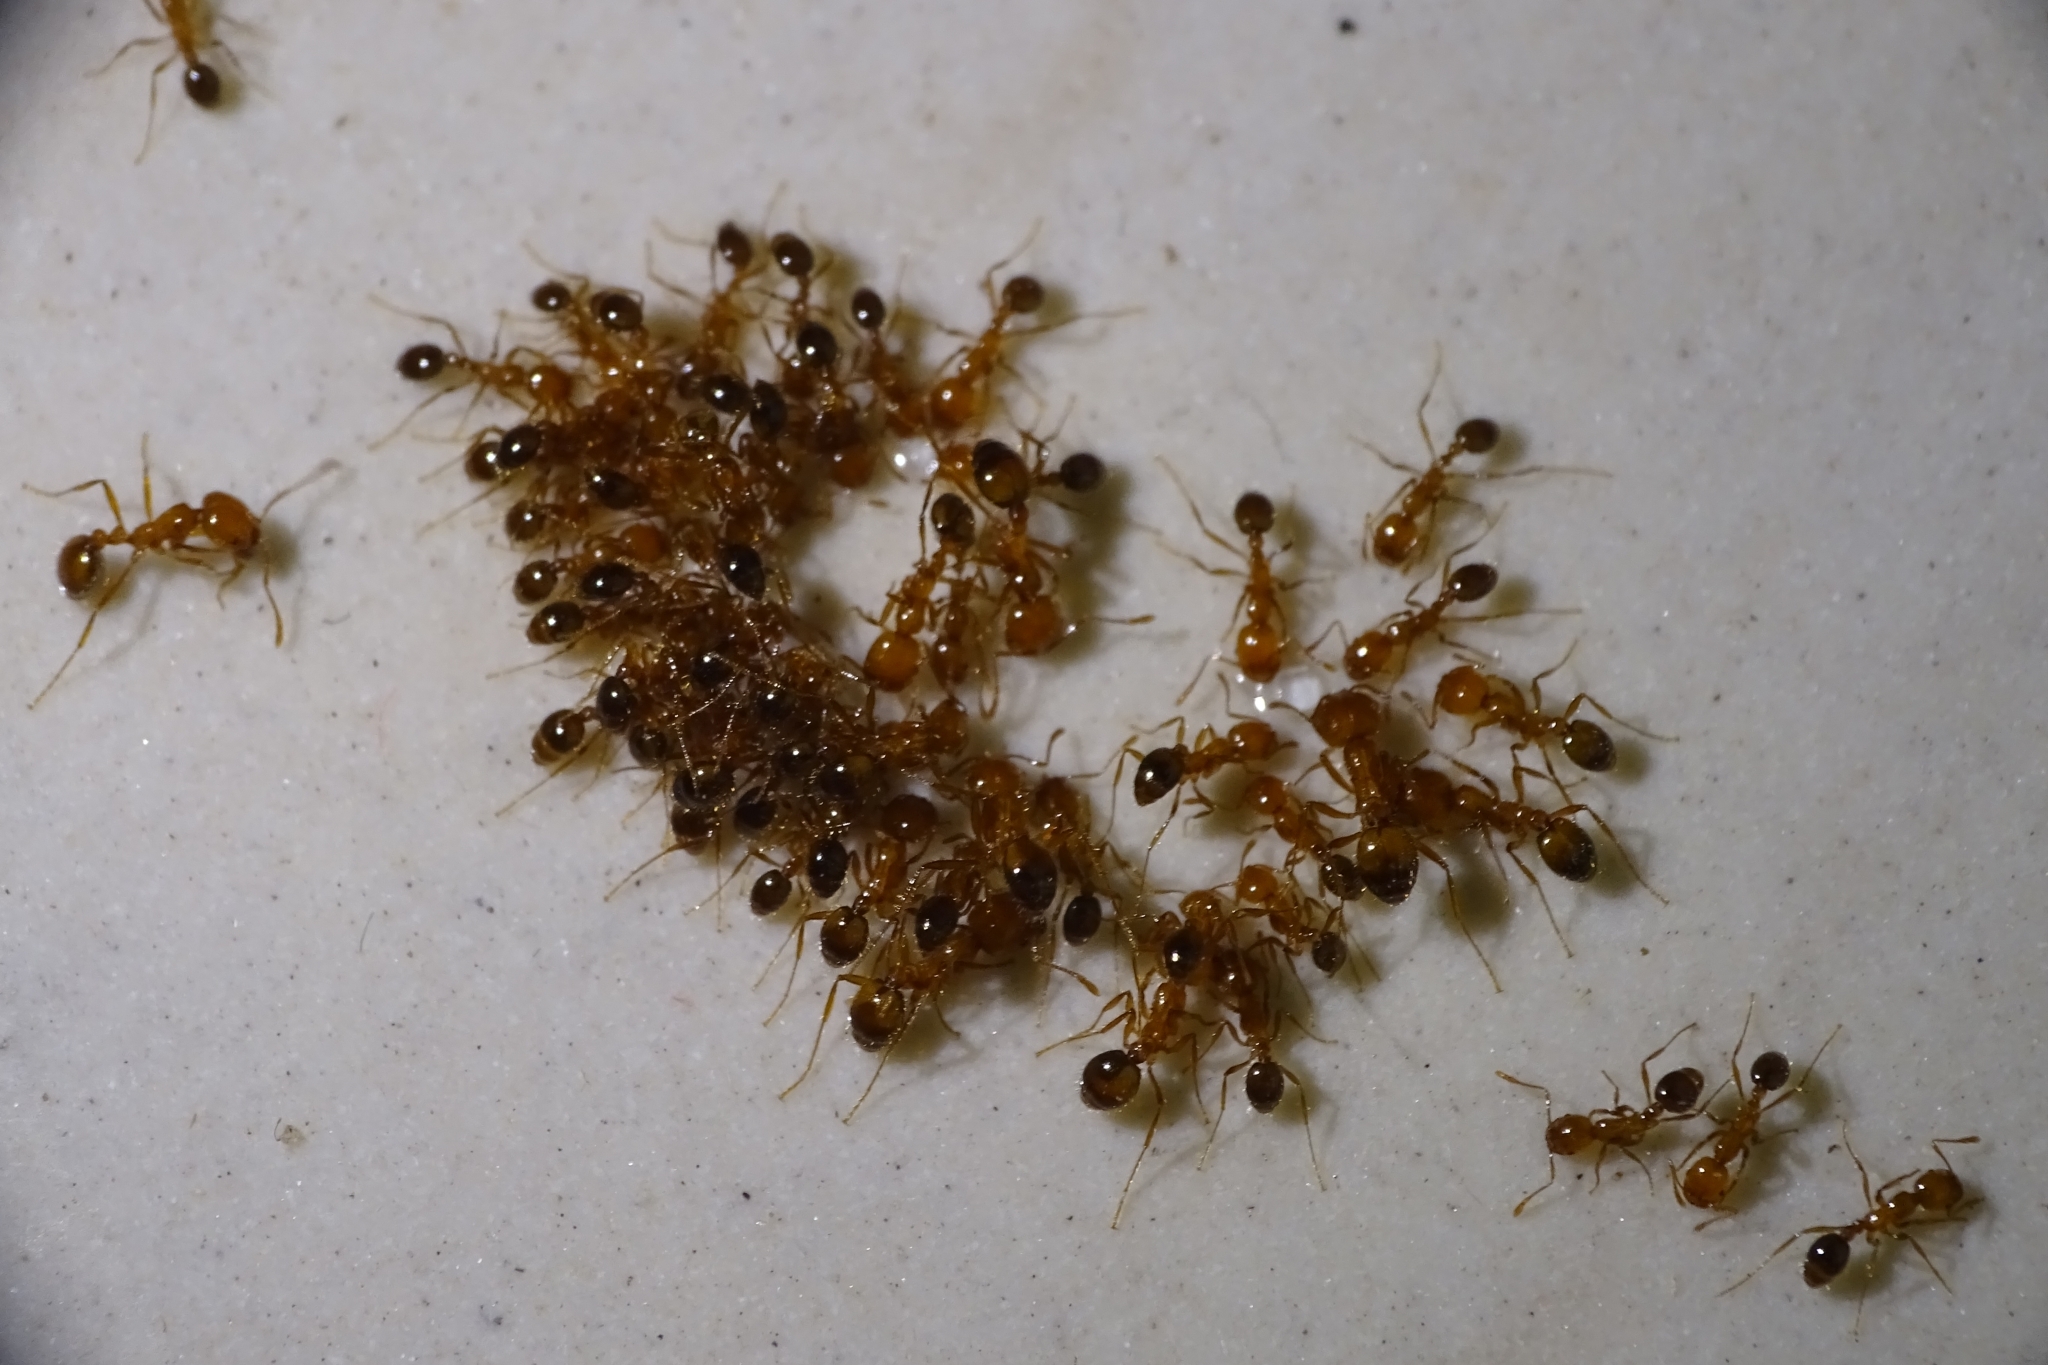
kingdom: Animalia
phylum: Arthropoda
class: Insecta
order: Hymenoptera
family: Formicidae
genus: Solenopsis
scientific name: Solenopsis geminata
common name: Tropical fire ant
